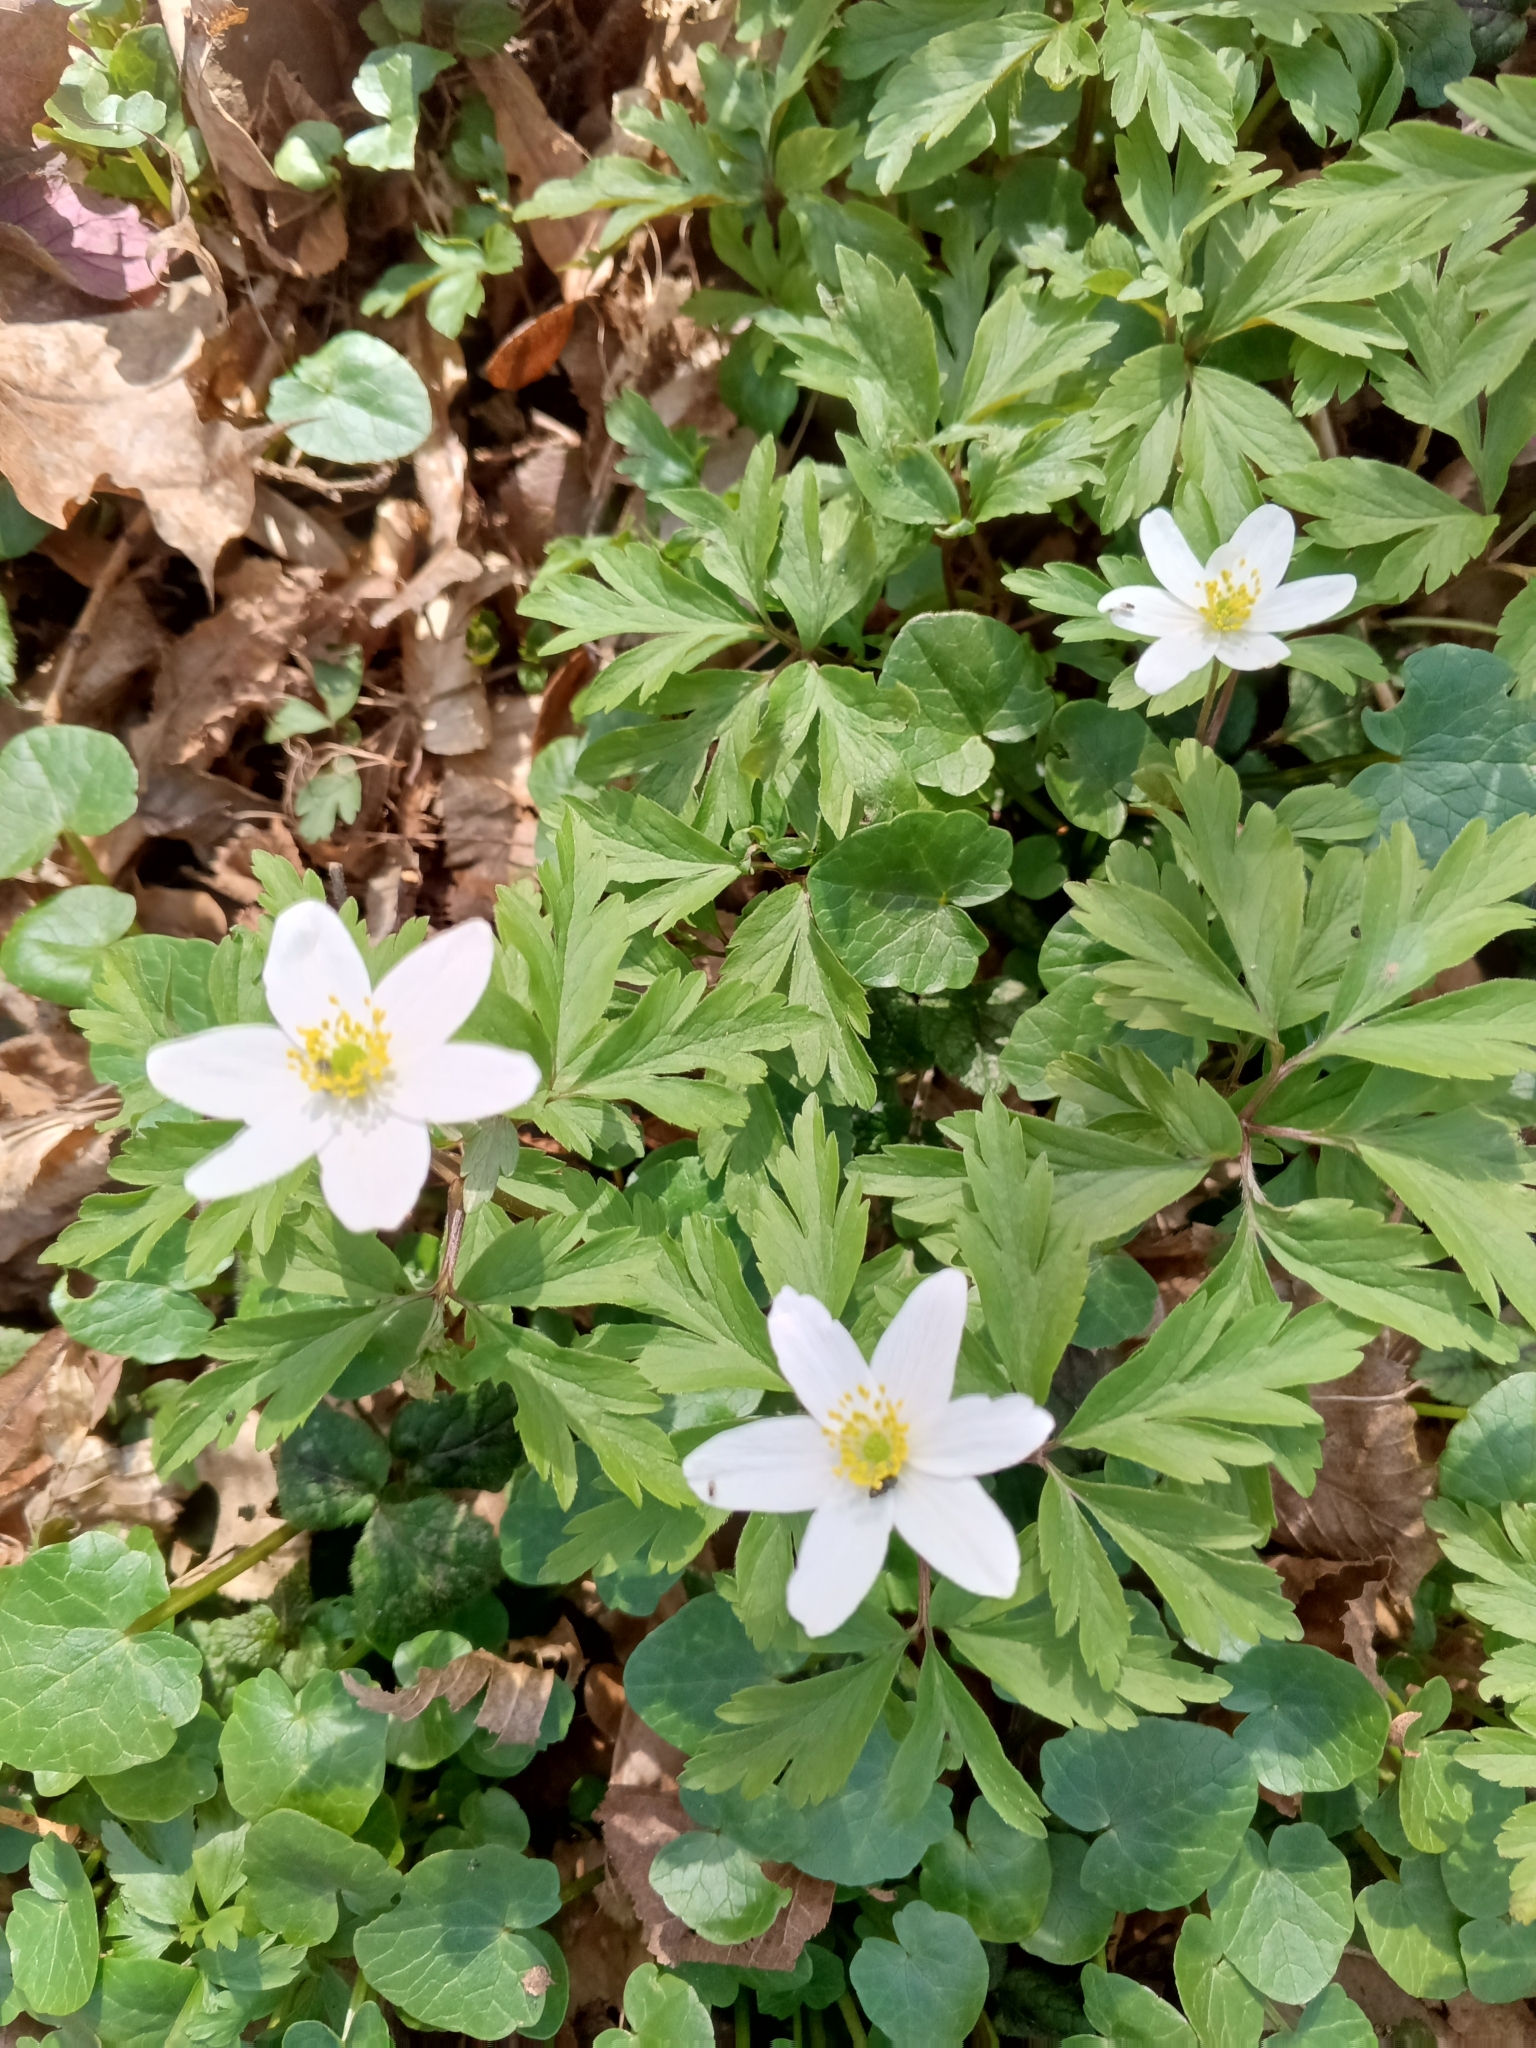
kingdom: Plantae
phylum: Tracheophyta
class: Magnoliopsida
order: Ranunculales
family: Ranunculaceae
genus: Anemone
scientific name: Anemone nemorosa
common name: Wood anemone
